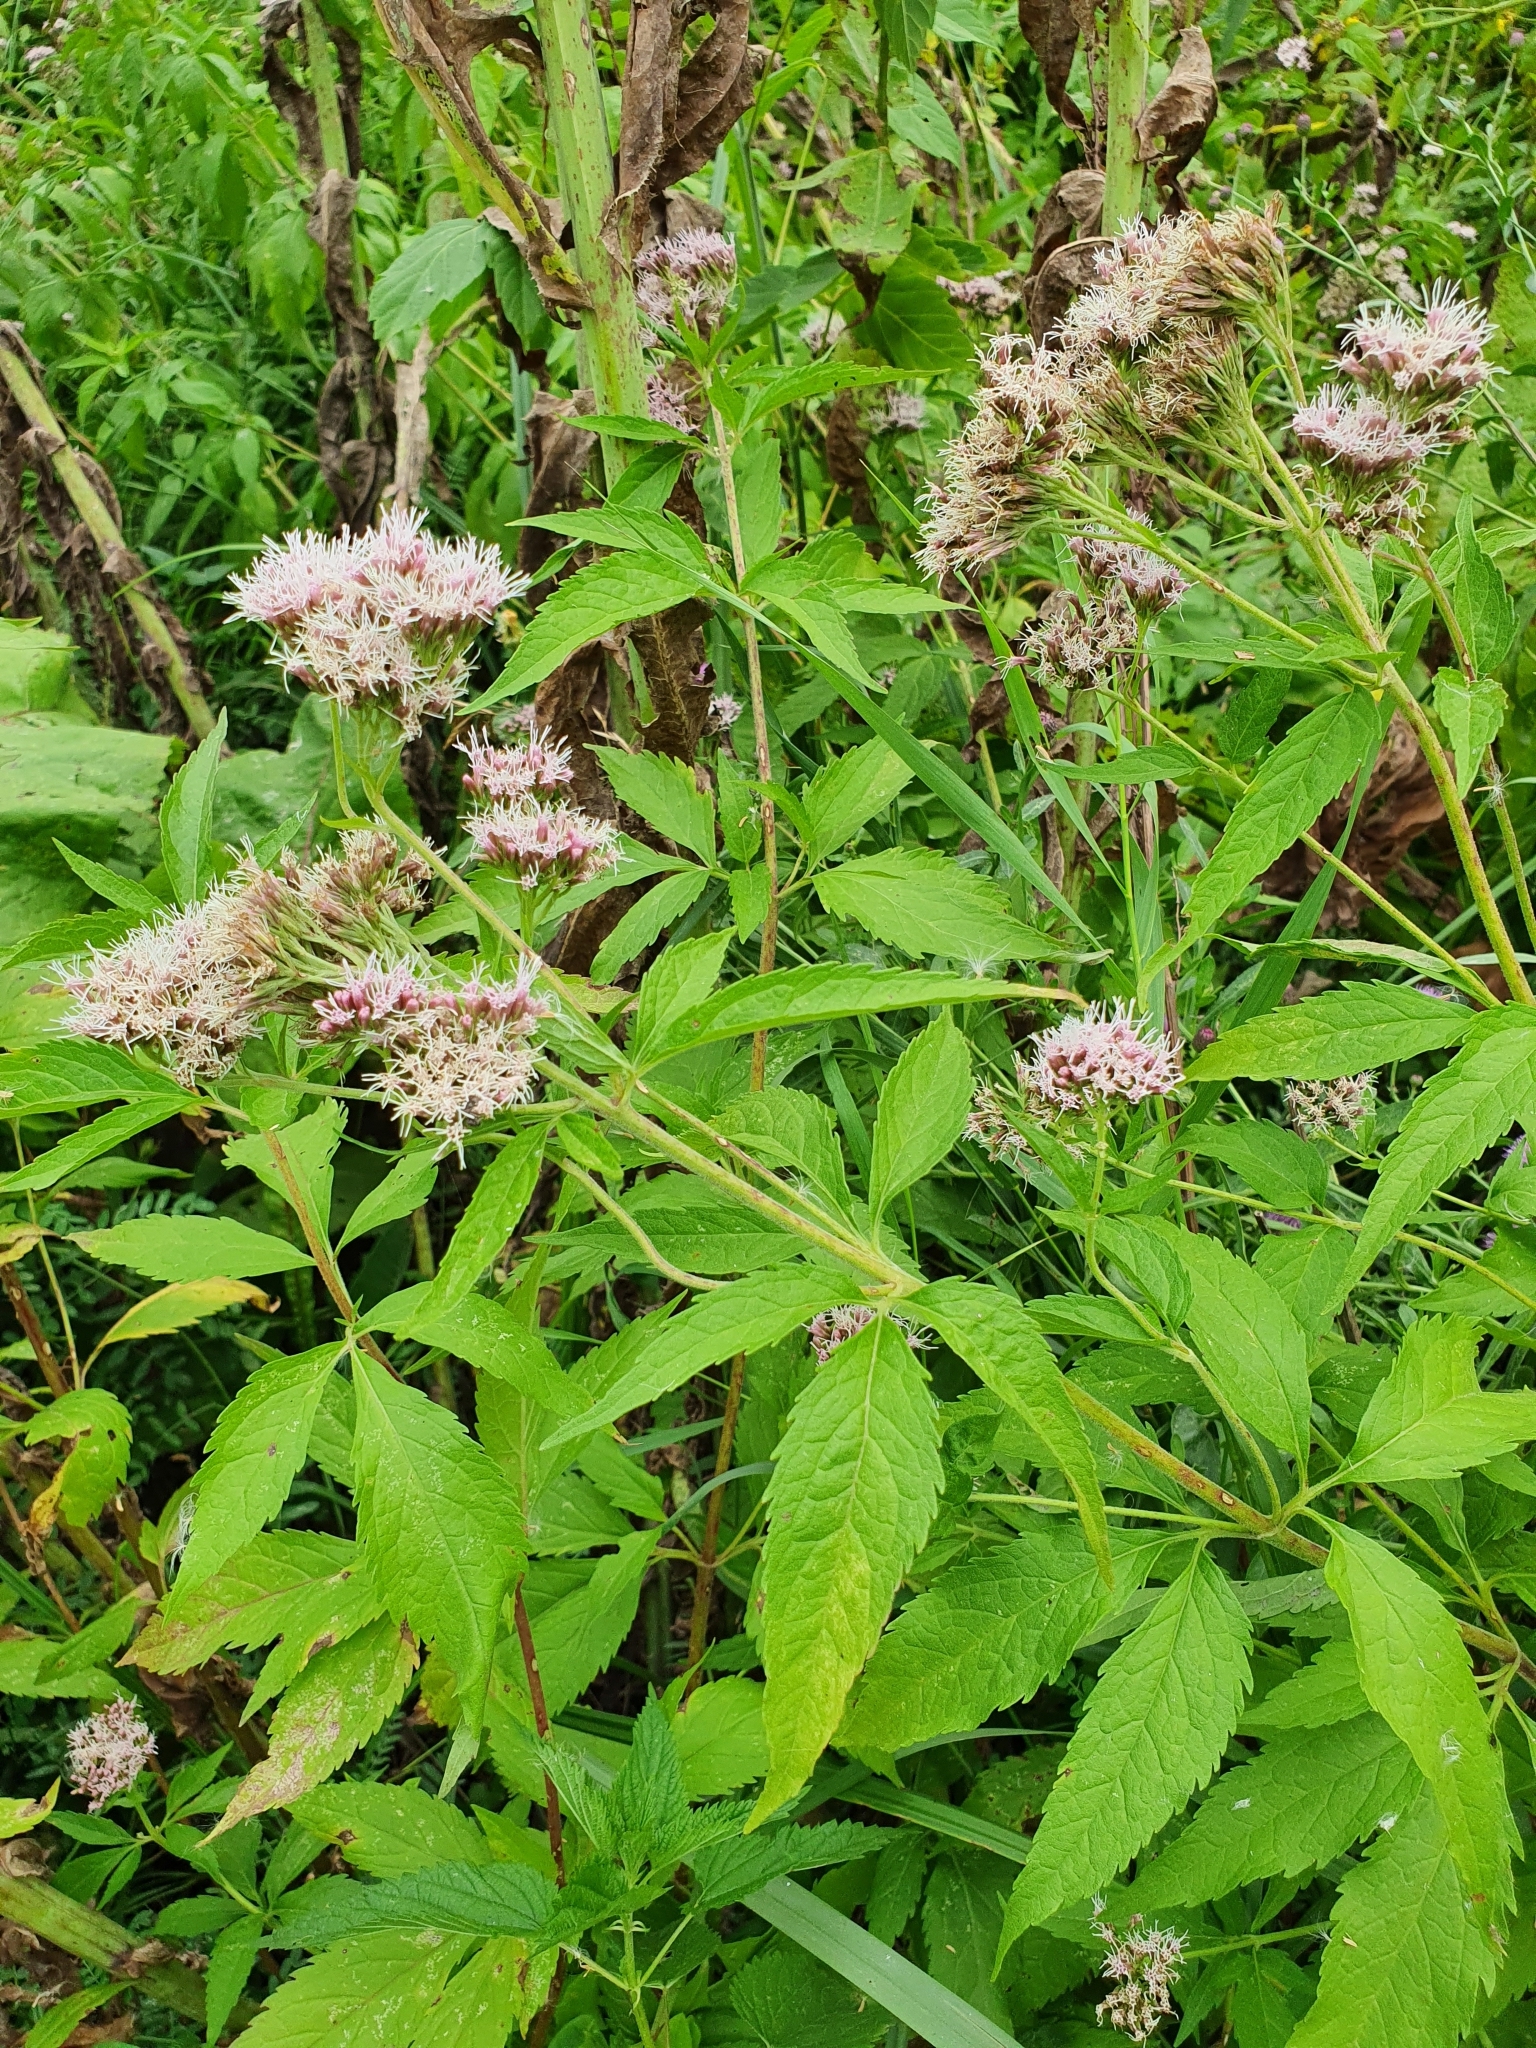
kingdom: Plantae
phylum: Tracheophyta
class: Magnoliopsida
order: Asterales
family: Asteraceae
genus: Eupatorium
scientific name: Eupatorium cannabinum
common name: Hemp-agrimony
